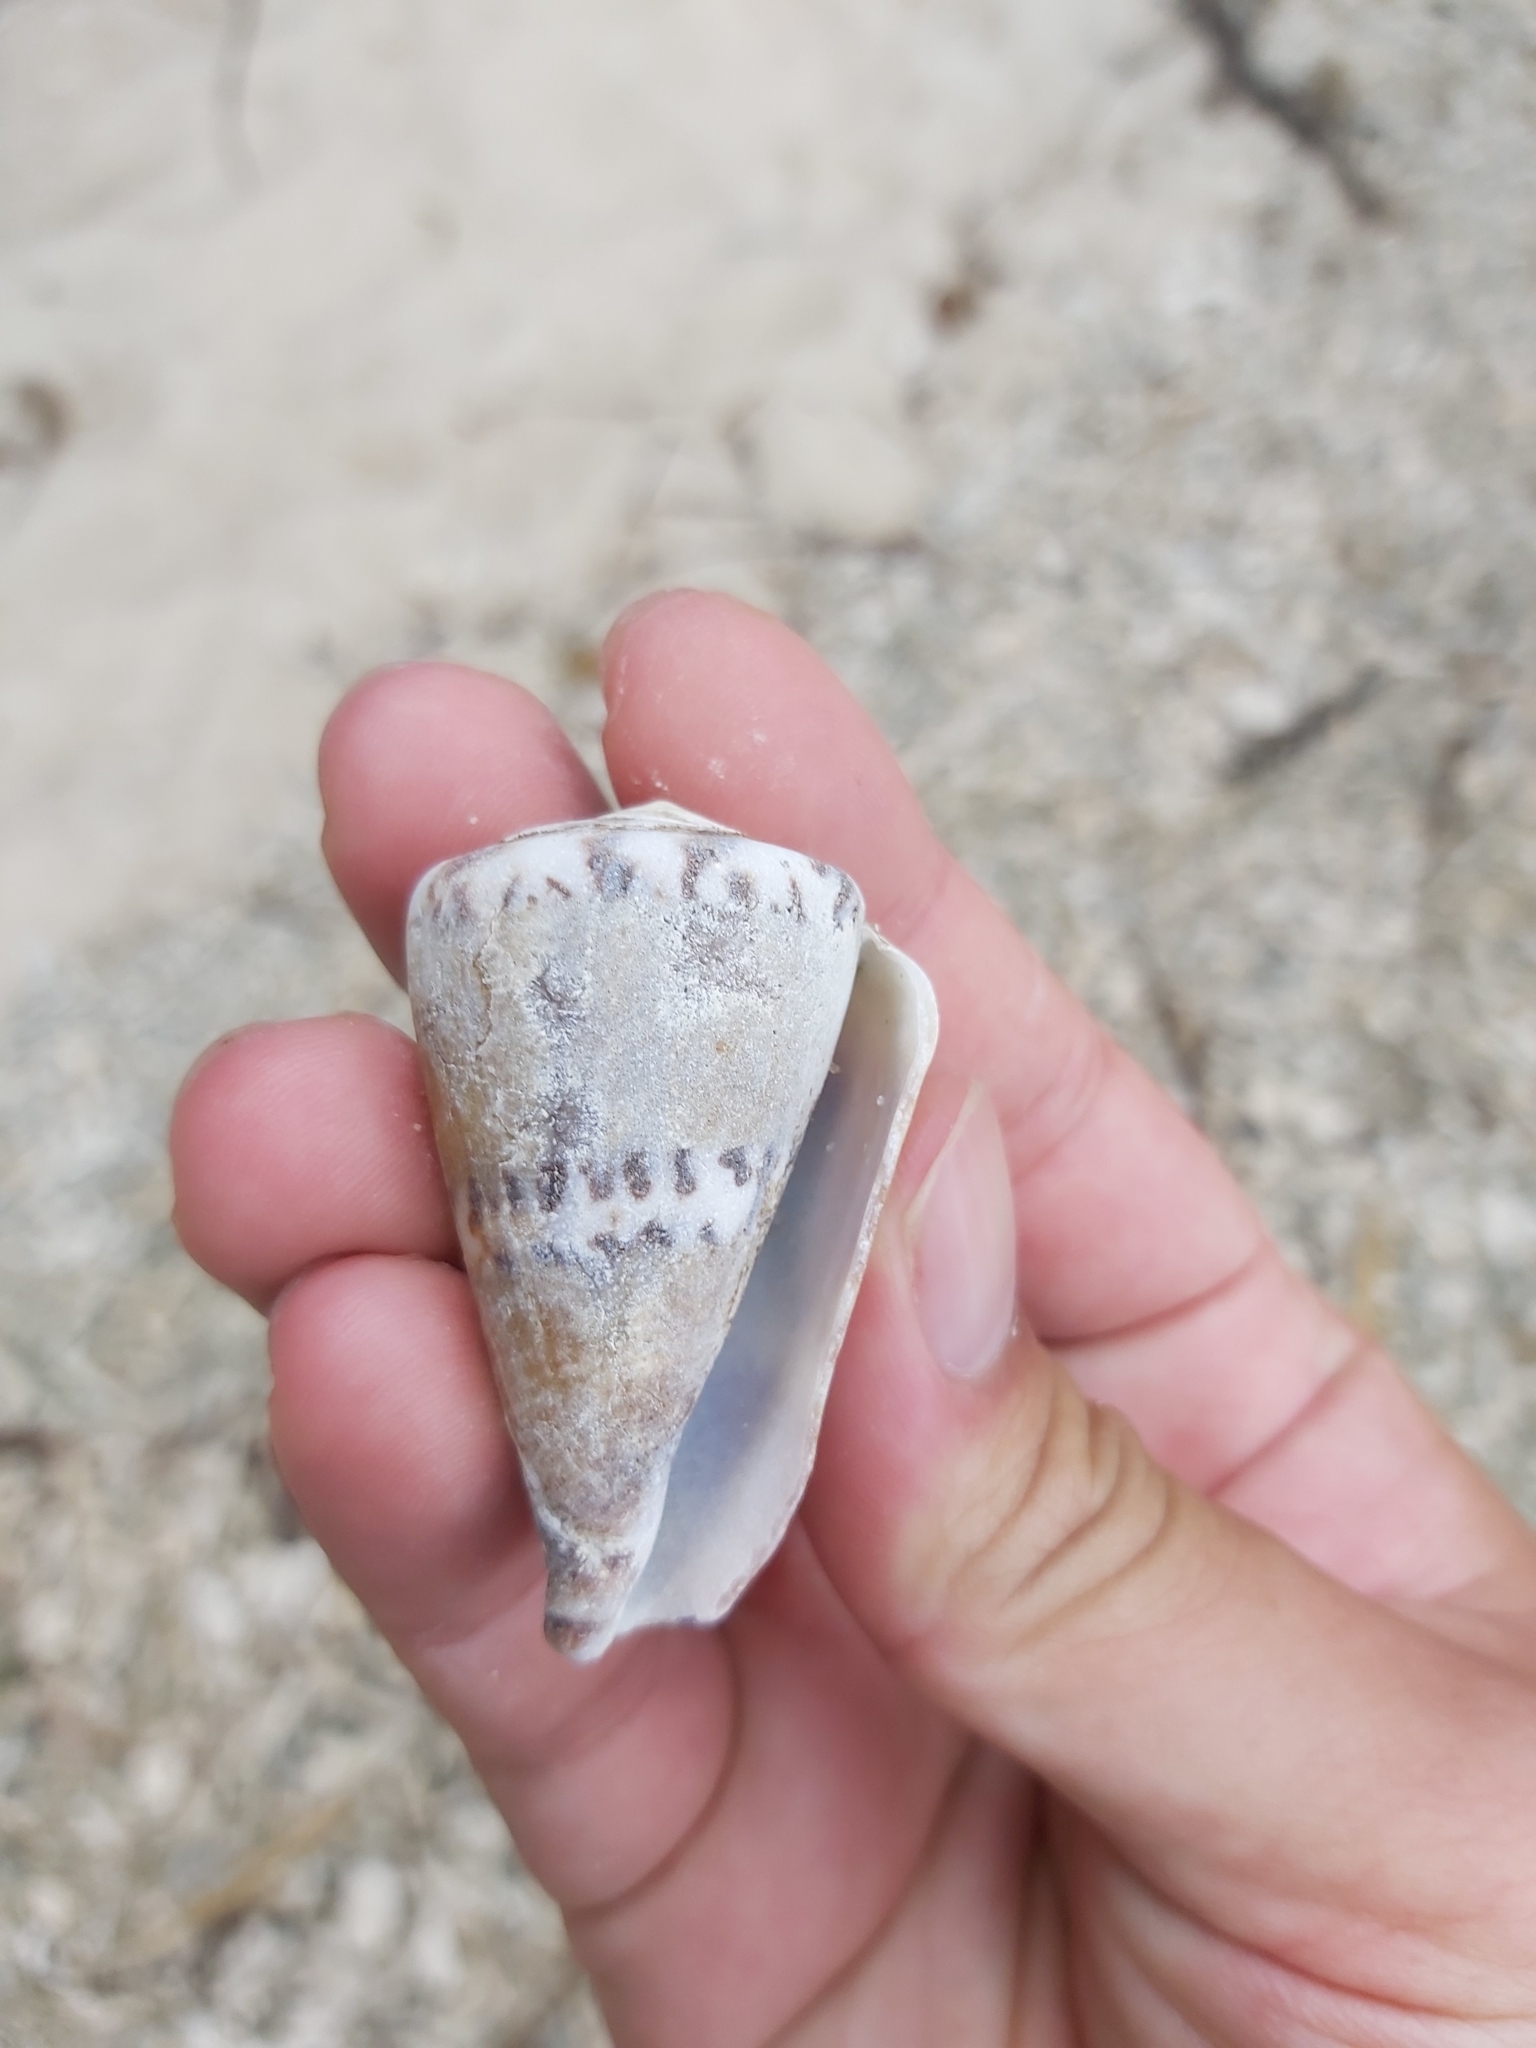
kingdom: Animalia
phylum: Mollusca
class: Gastropoda
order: Neogastropoda
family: Conidae
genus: Conus
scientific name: Conus capitaneus
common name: Captain cone
